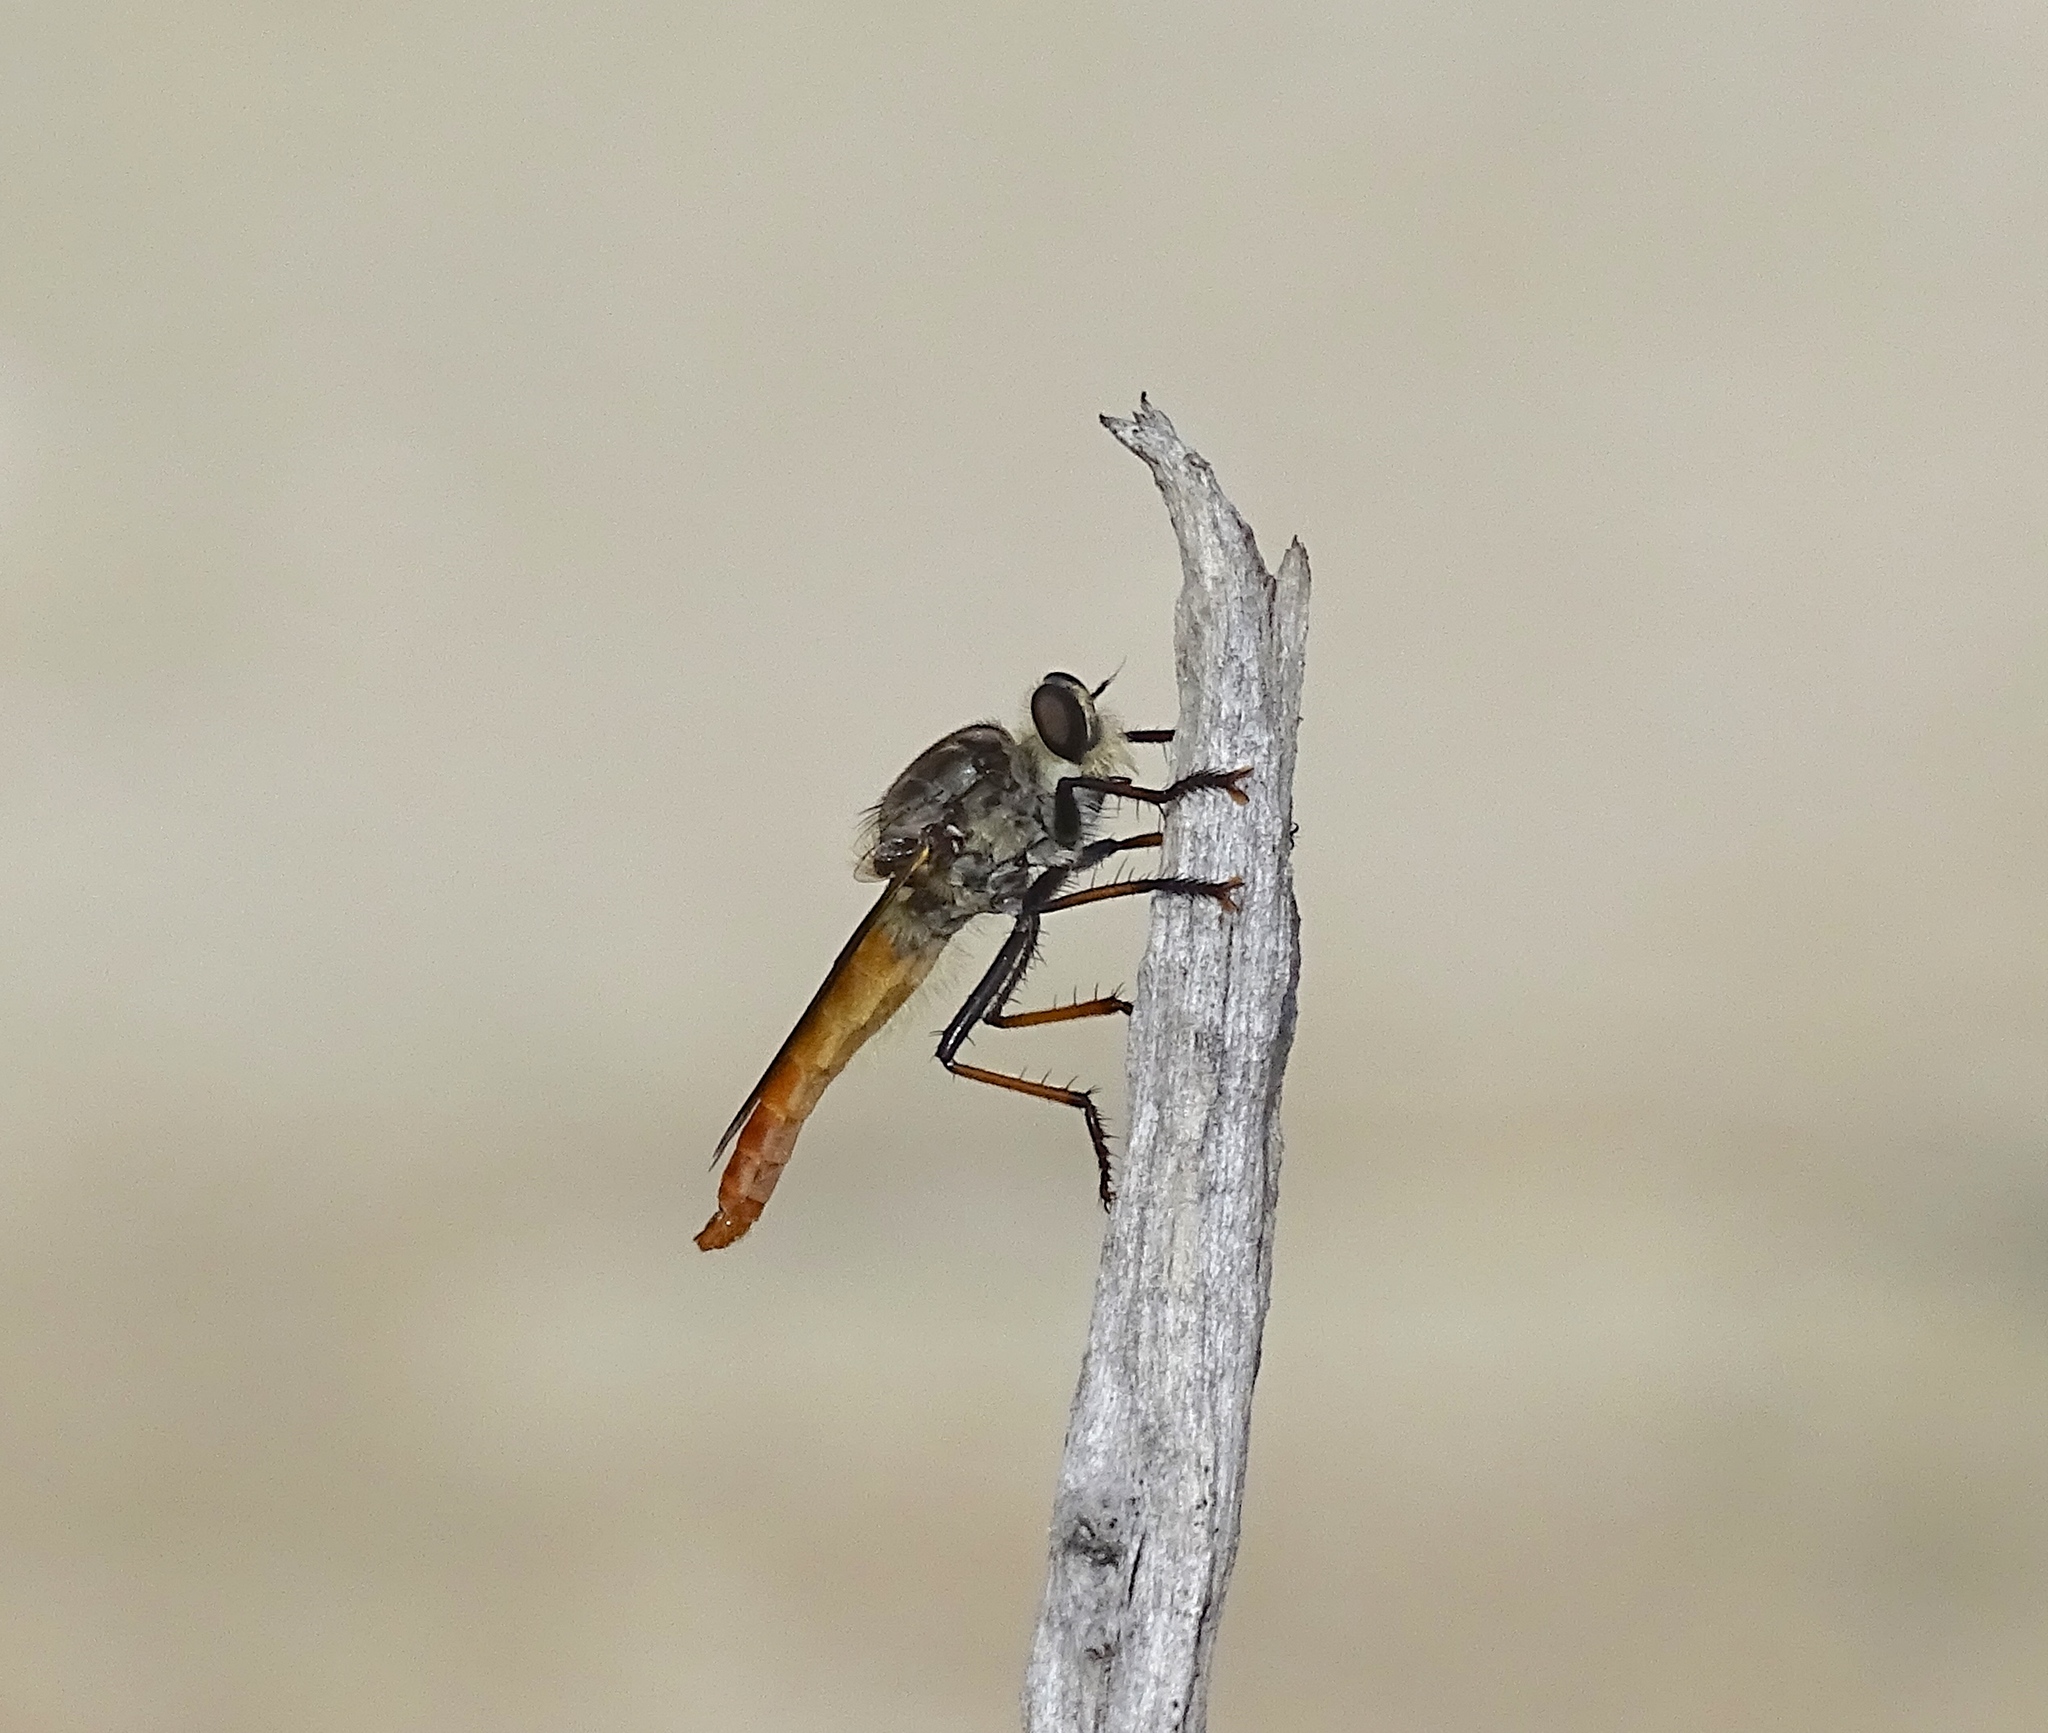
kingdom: Animalia
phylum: Arthropoda
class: Insecta
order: Diptera
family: Asilidae
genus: Proctacanthus
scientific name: Proctacanthus darlingtoni
